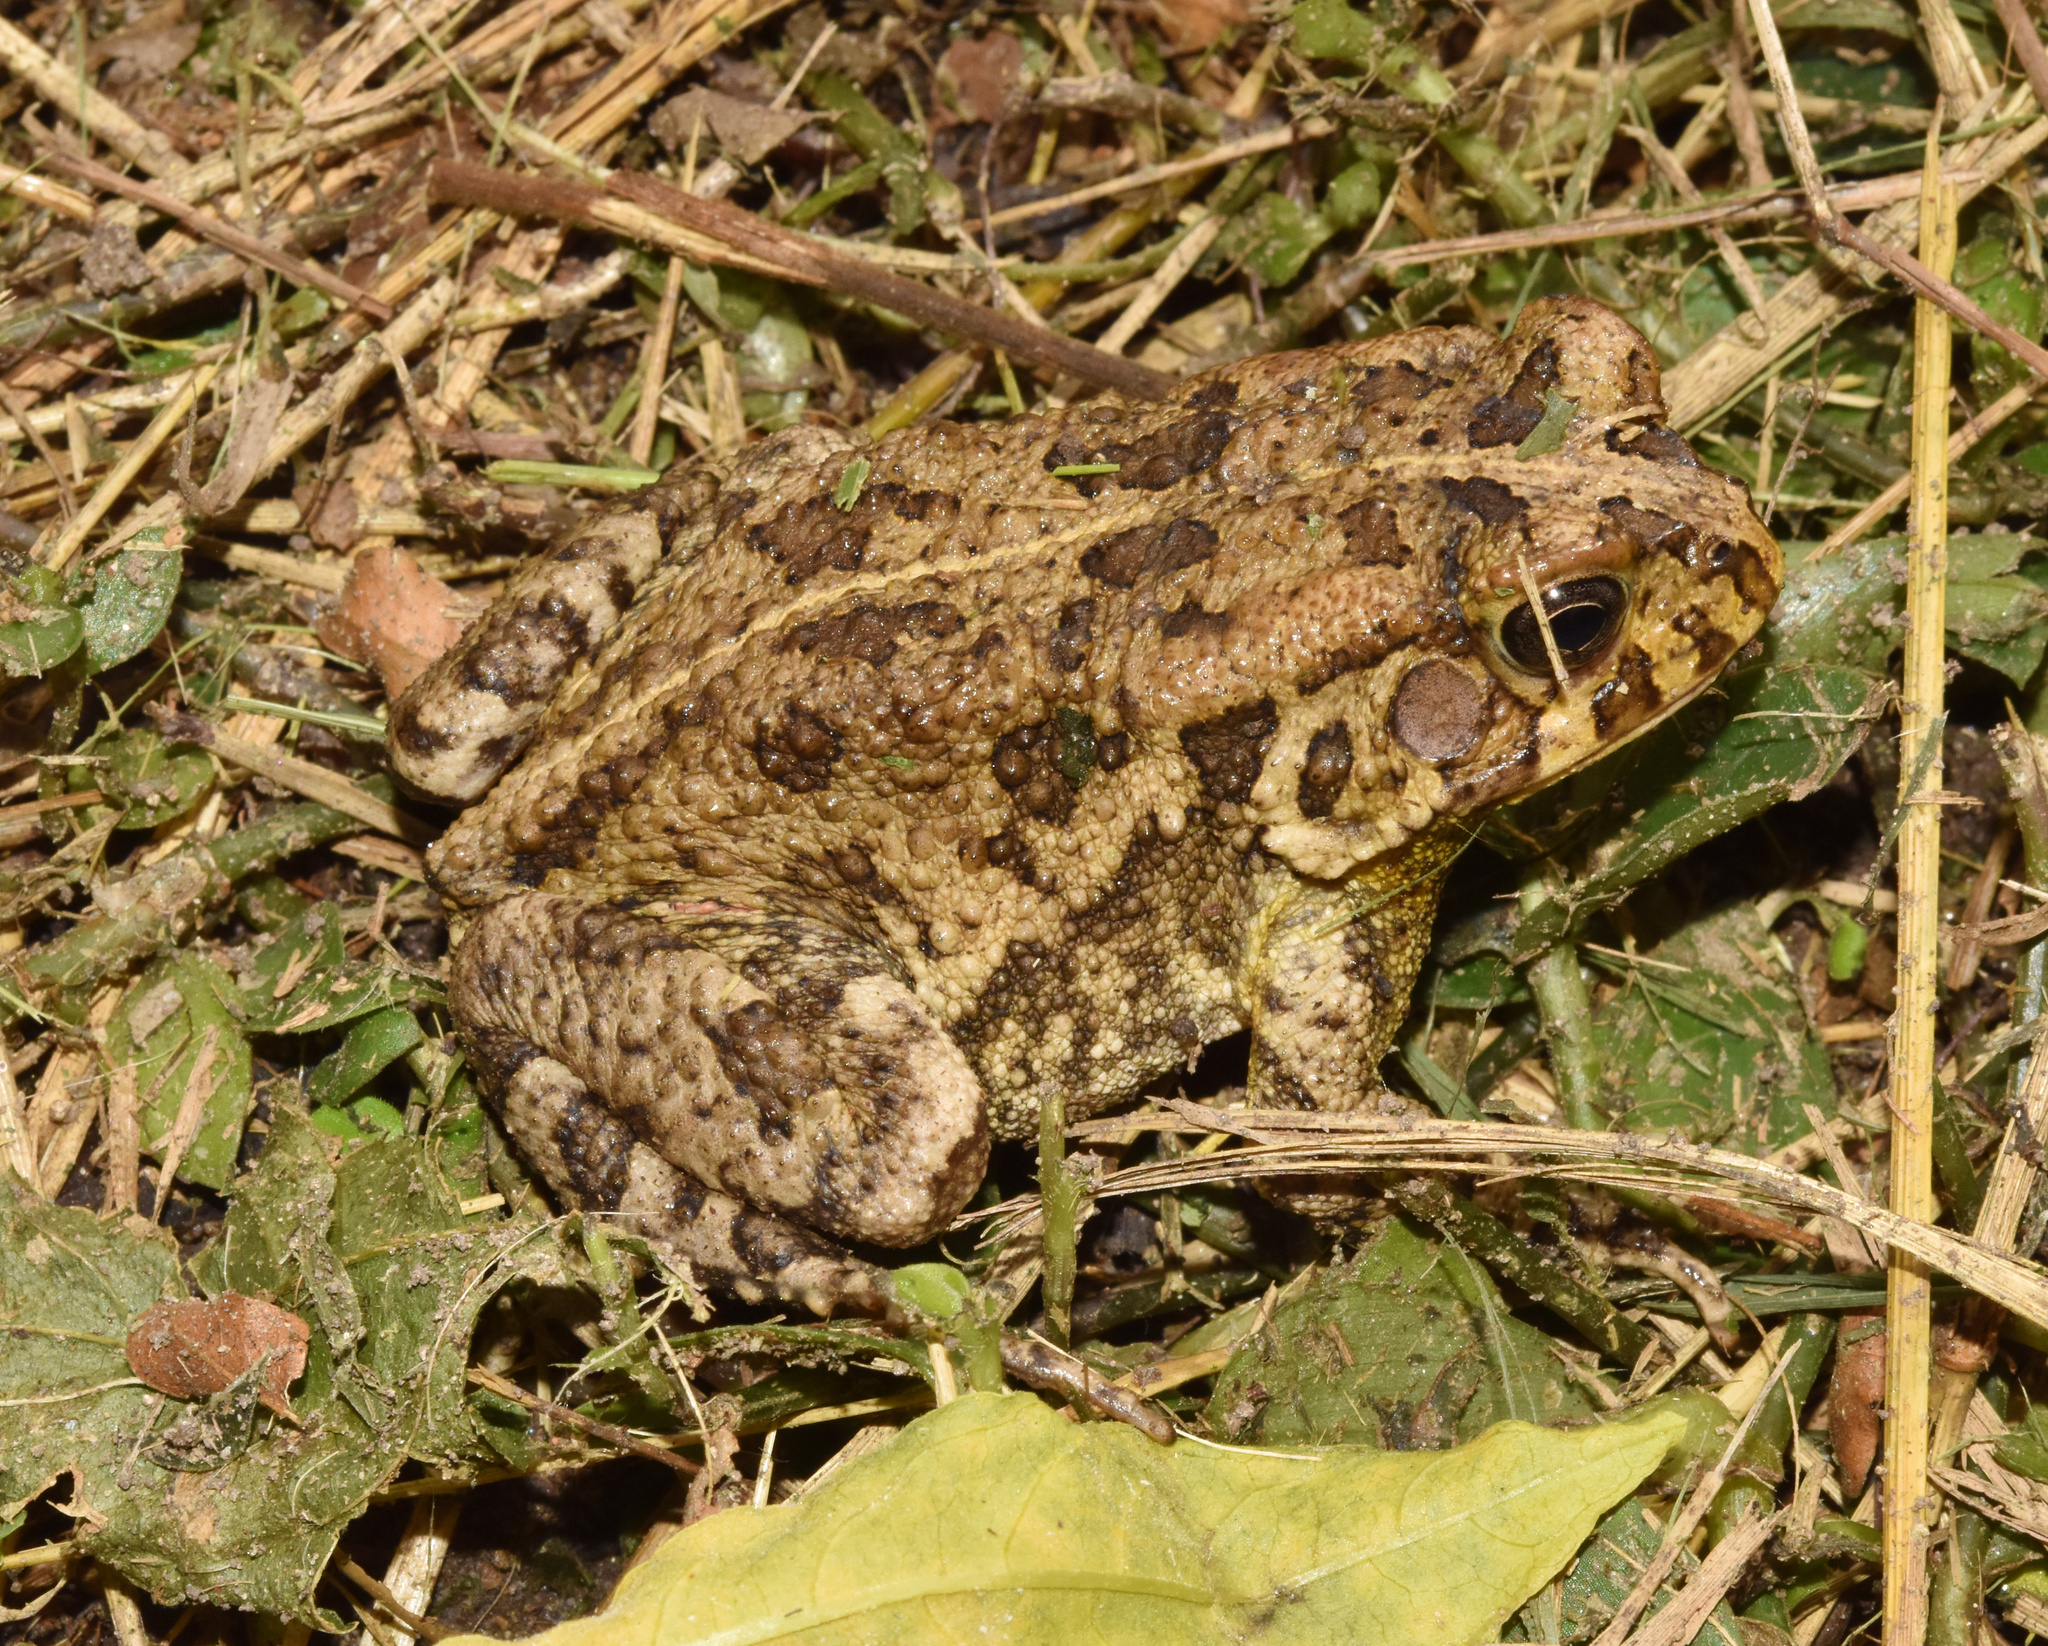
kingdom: Animalia
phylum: Chordata
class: Amphibia
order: Anura
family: Bufonidae
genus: Sclerophrys
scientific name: Sclerophrys gutturalis
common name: African common toad
